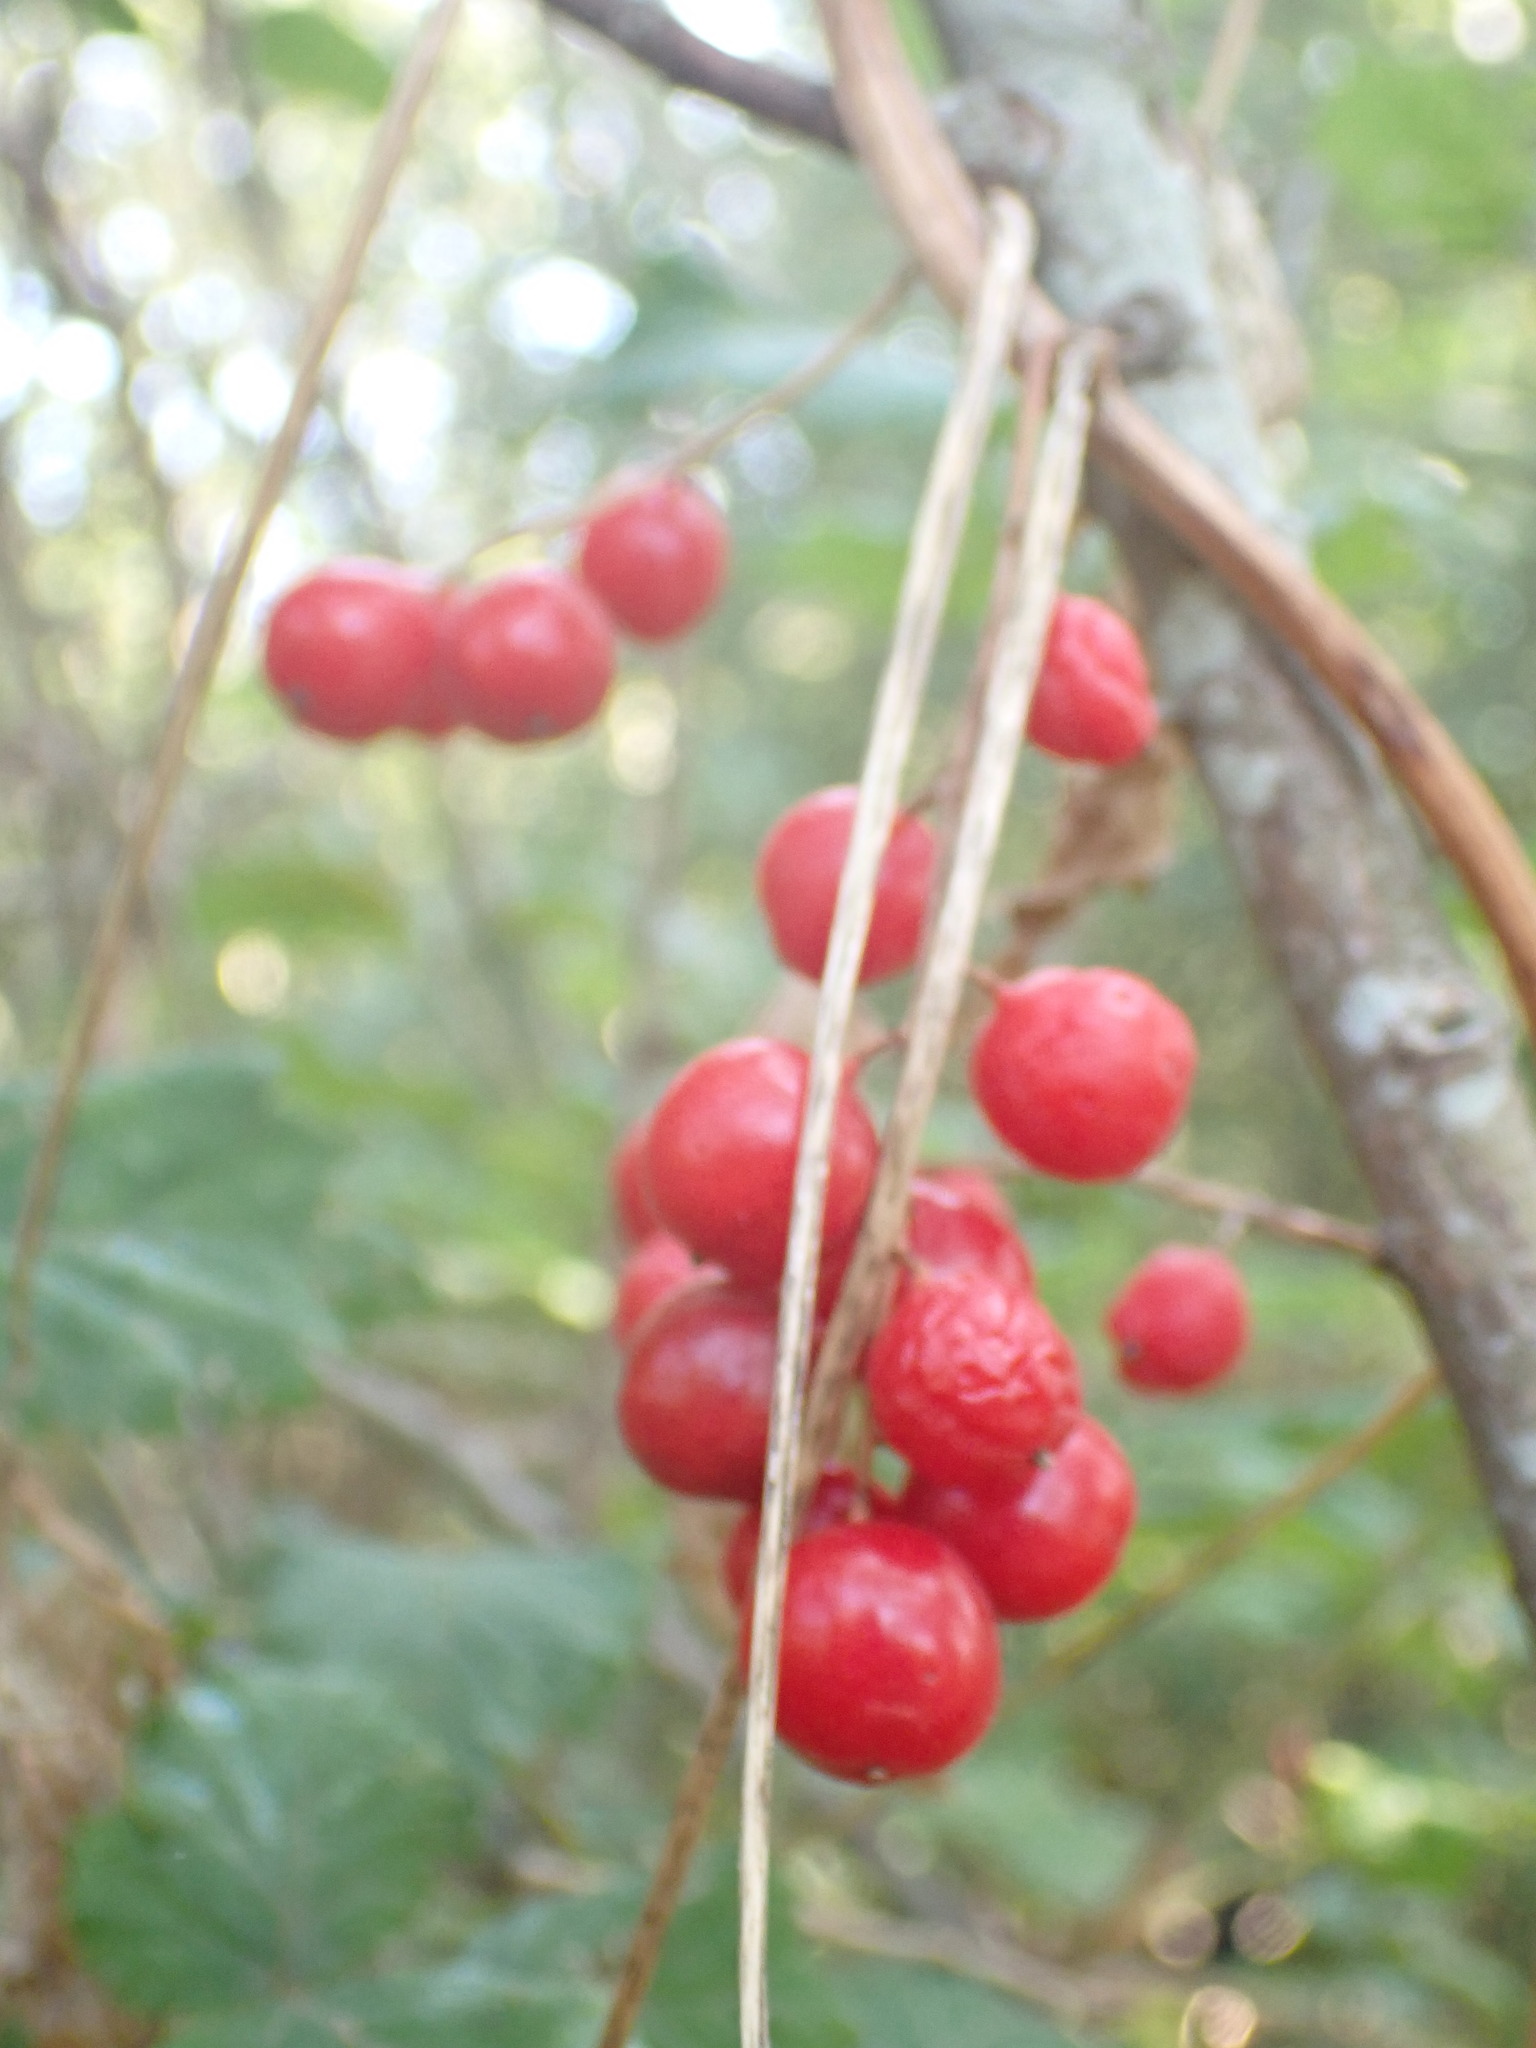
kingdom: Plantae
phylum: Tracheophyta
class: Liliopsida
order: Dioscoreales
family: Dioscoreaceae
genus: Dioscorea
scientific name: Dioscorea communis
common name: Black-bindweed
